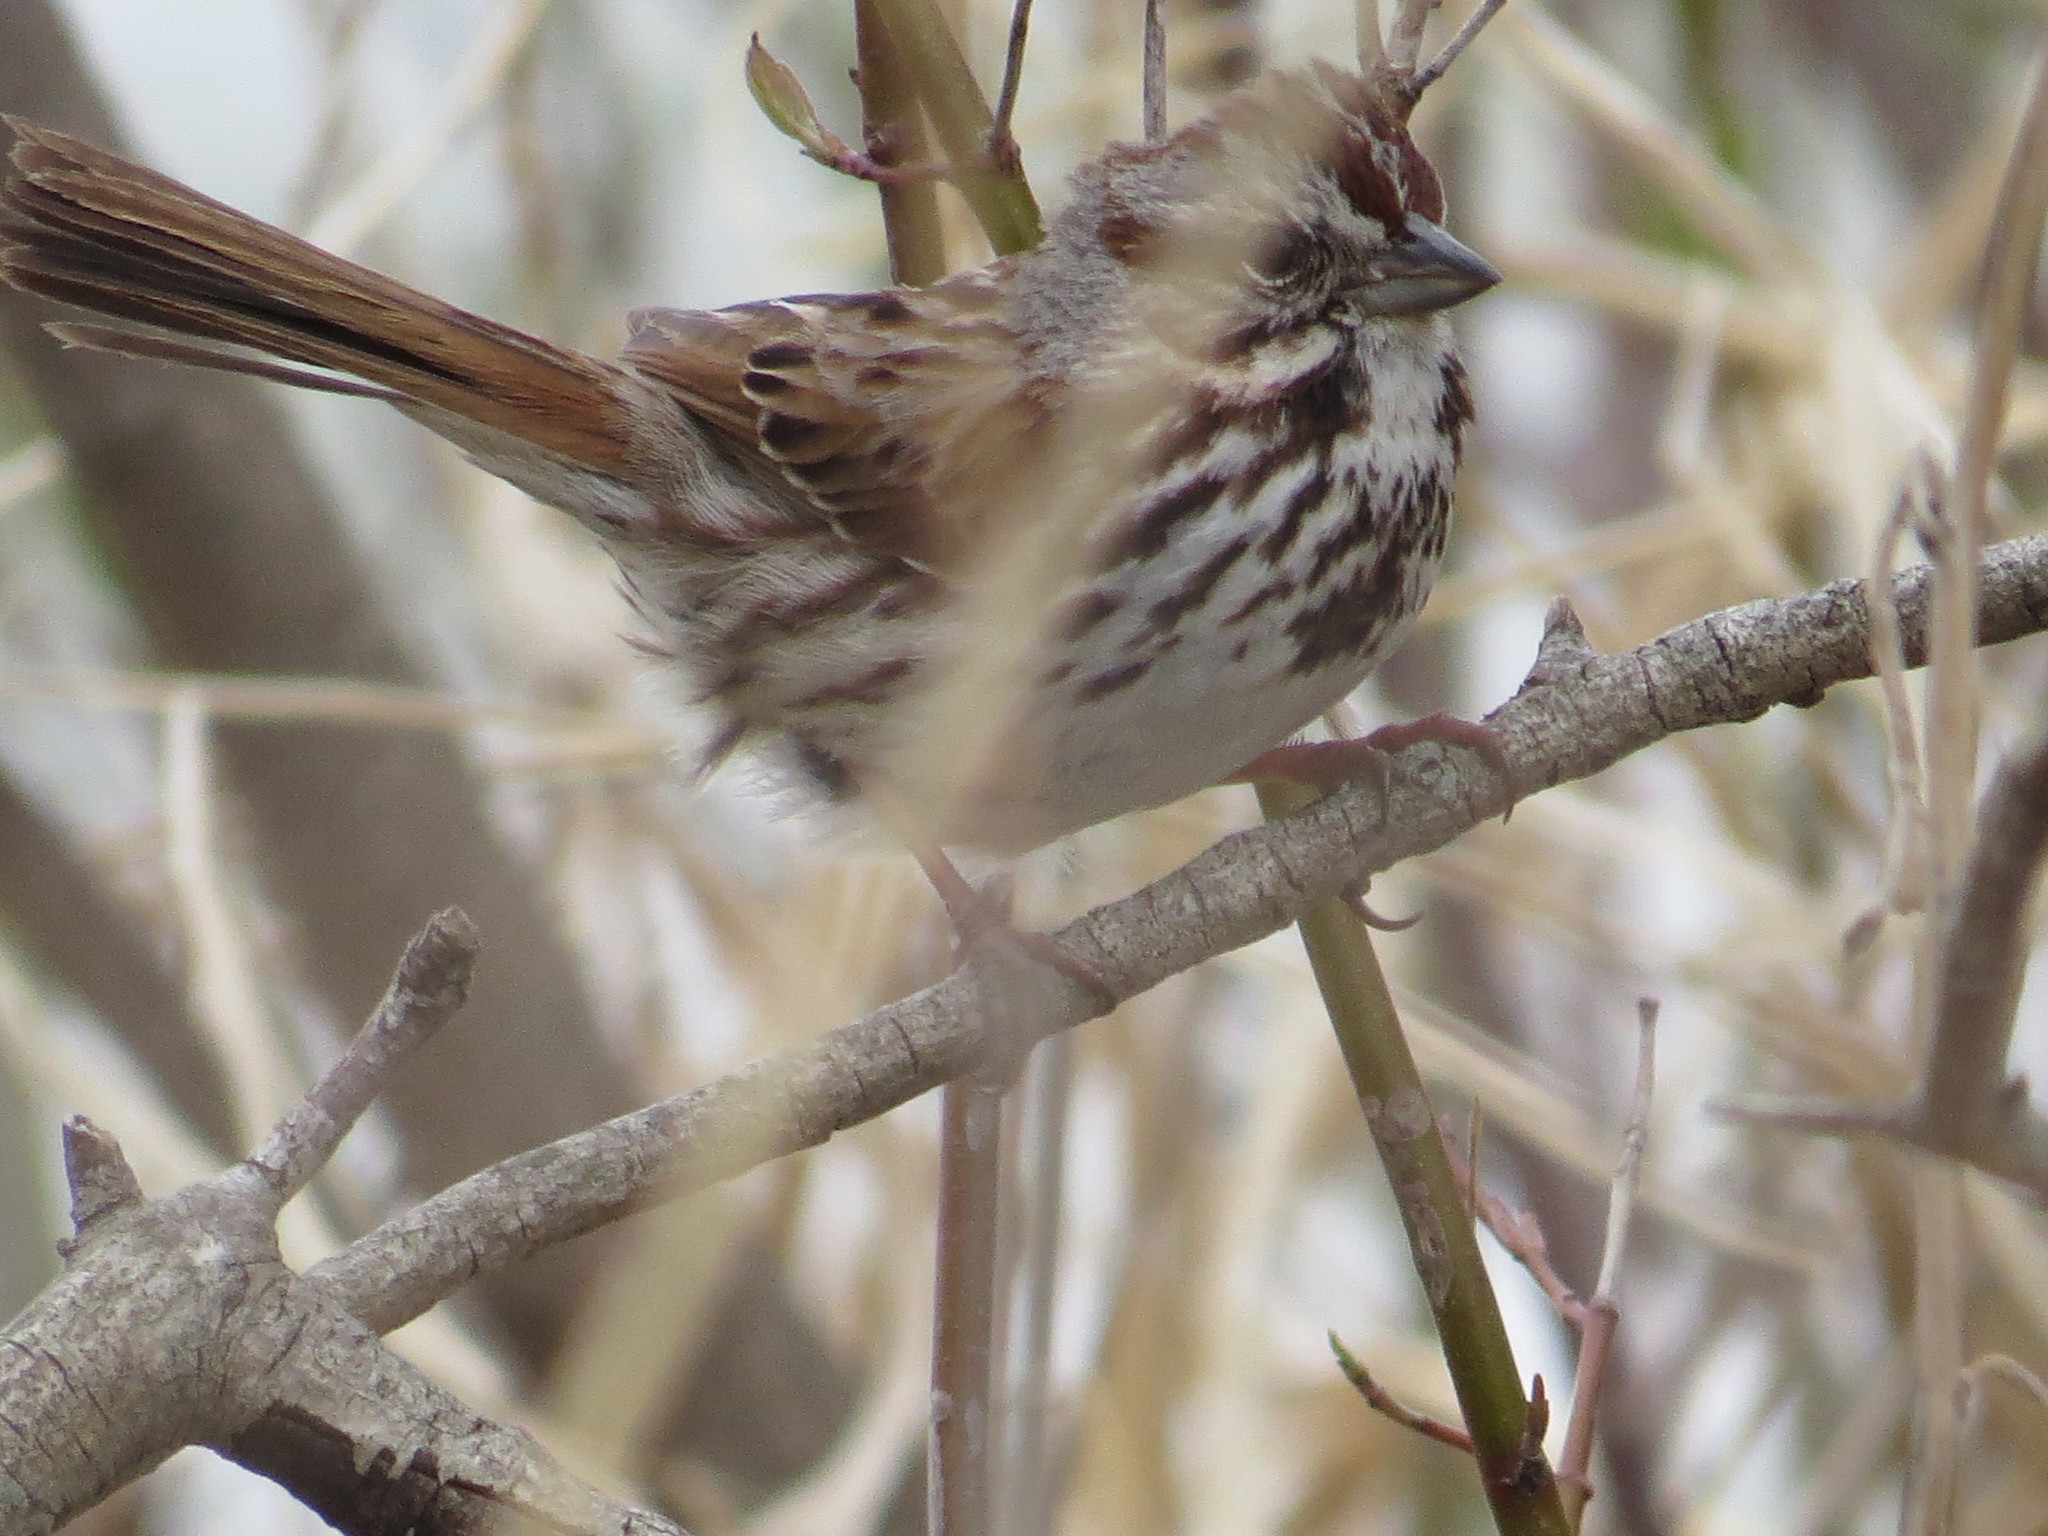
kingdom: Animalia
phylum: Chordata
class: Aves
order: Passeriformes
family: Passerellidae
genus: Melospiza
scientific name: Melospiza melodia
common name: Song sparrow
